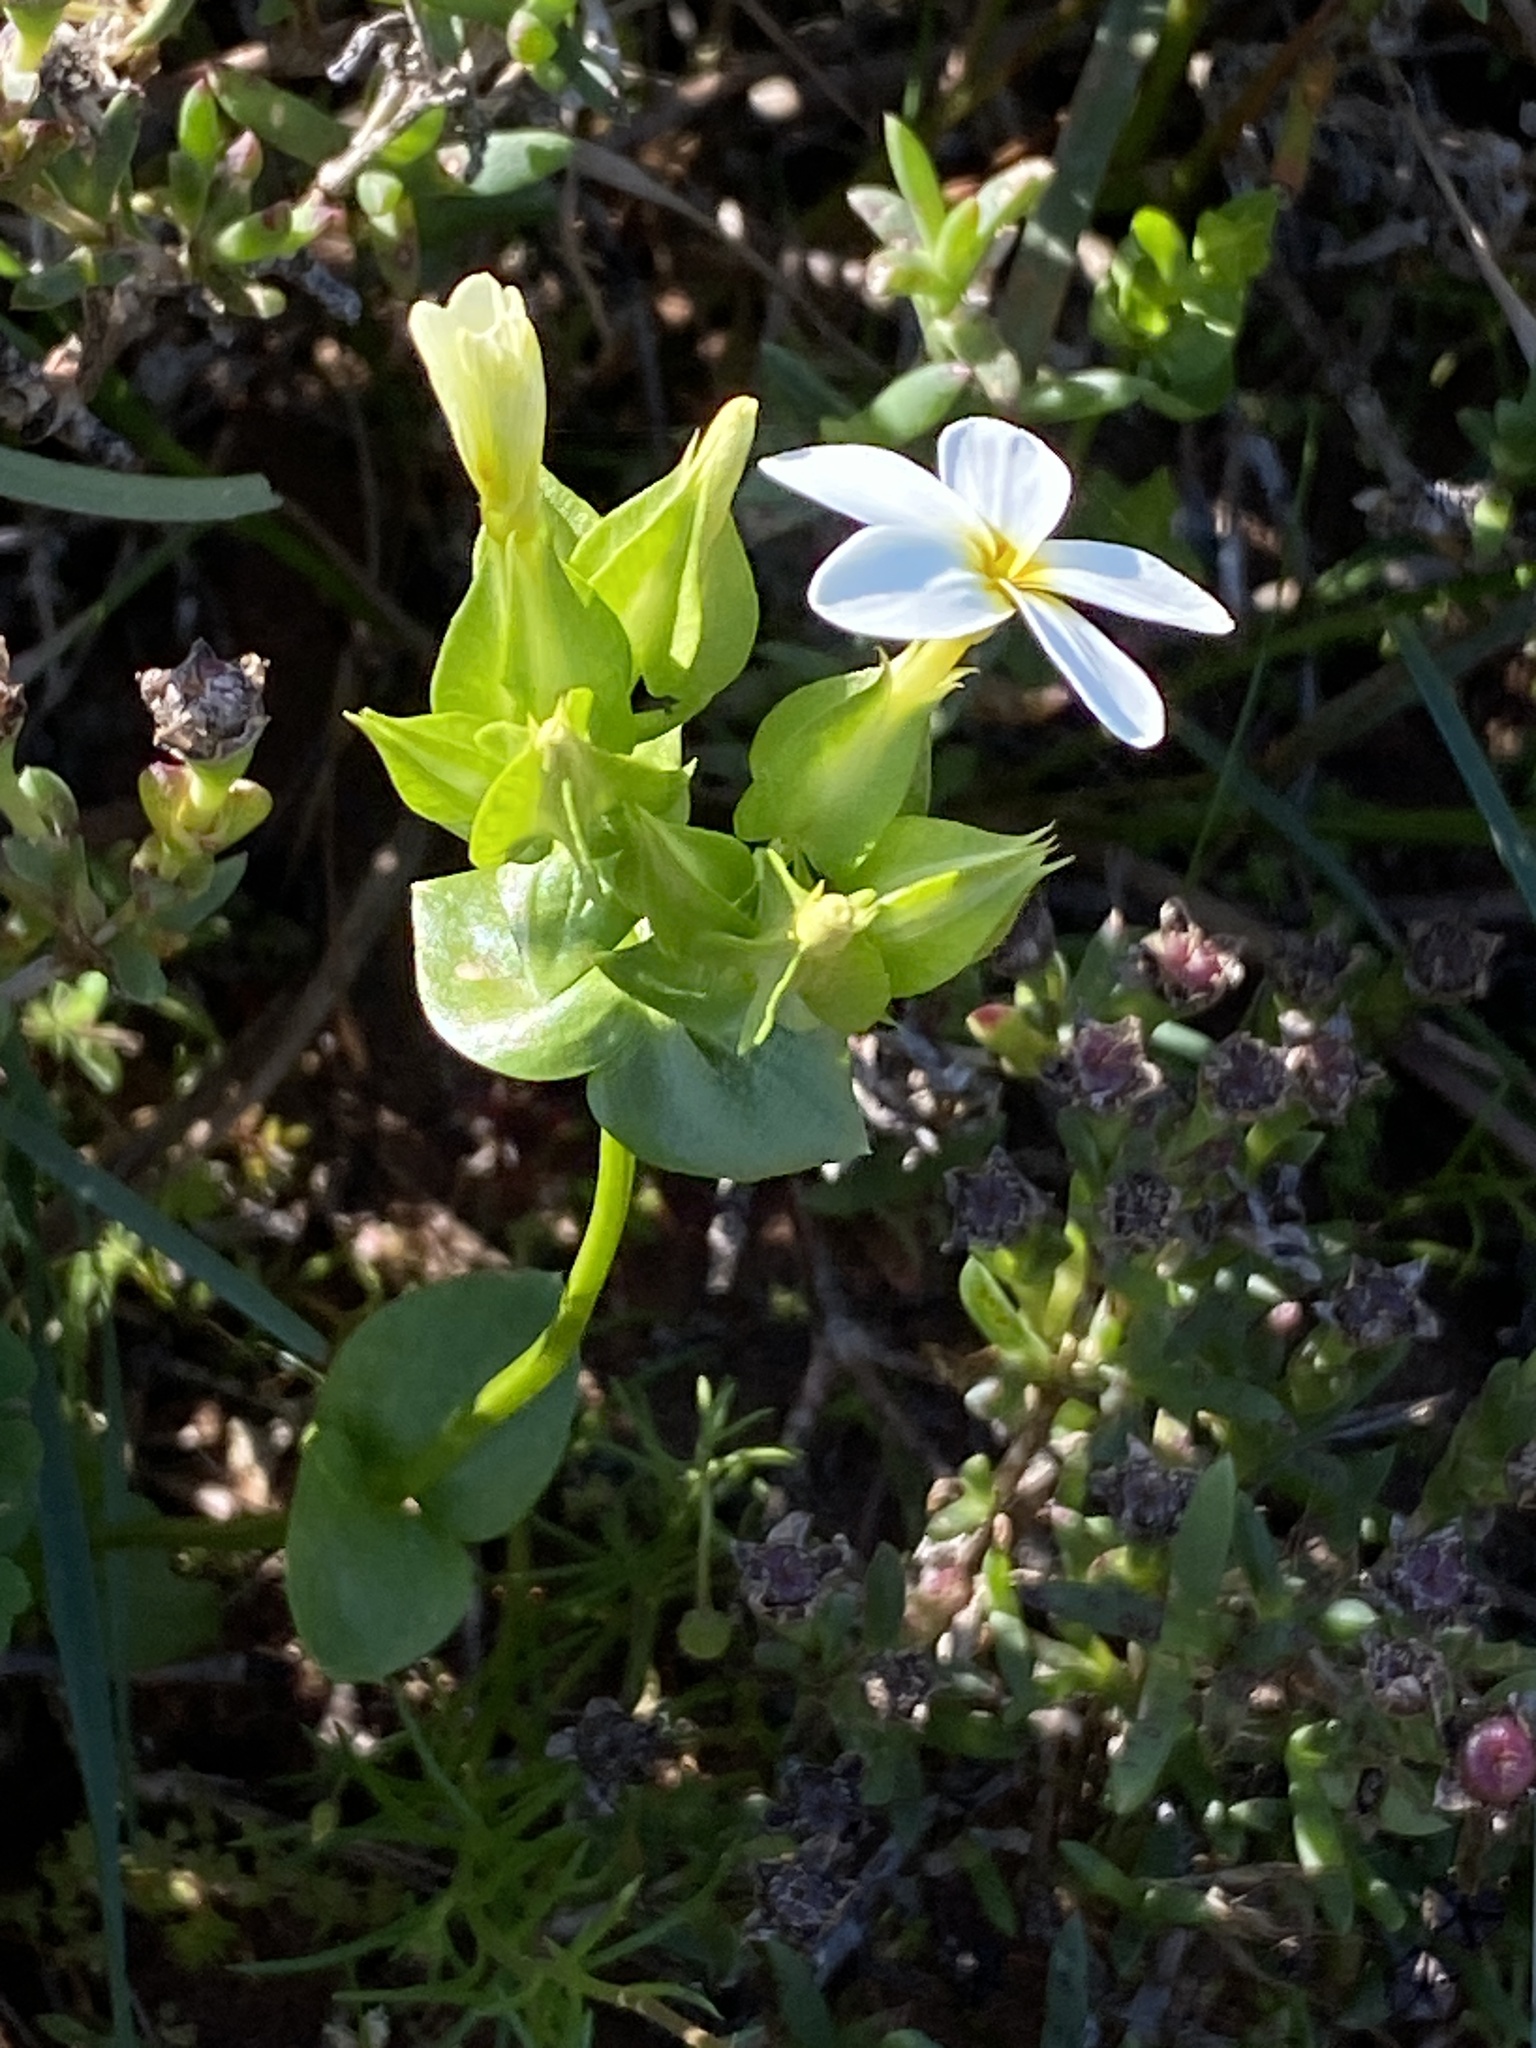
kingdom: Plantae
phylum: Tracheophyta
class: Magnoliopsida
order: Gentianales
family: Gentianaceae
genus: Sebaea
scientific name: Sebaea exacoides
